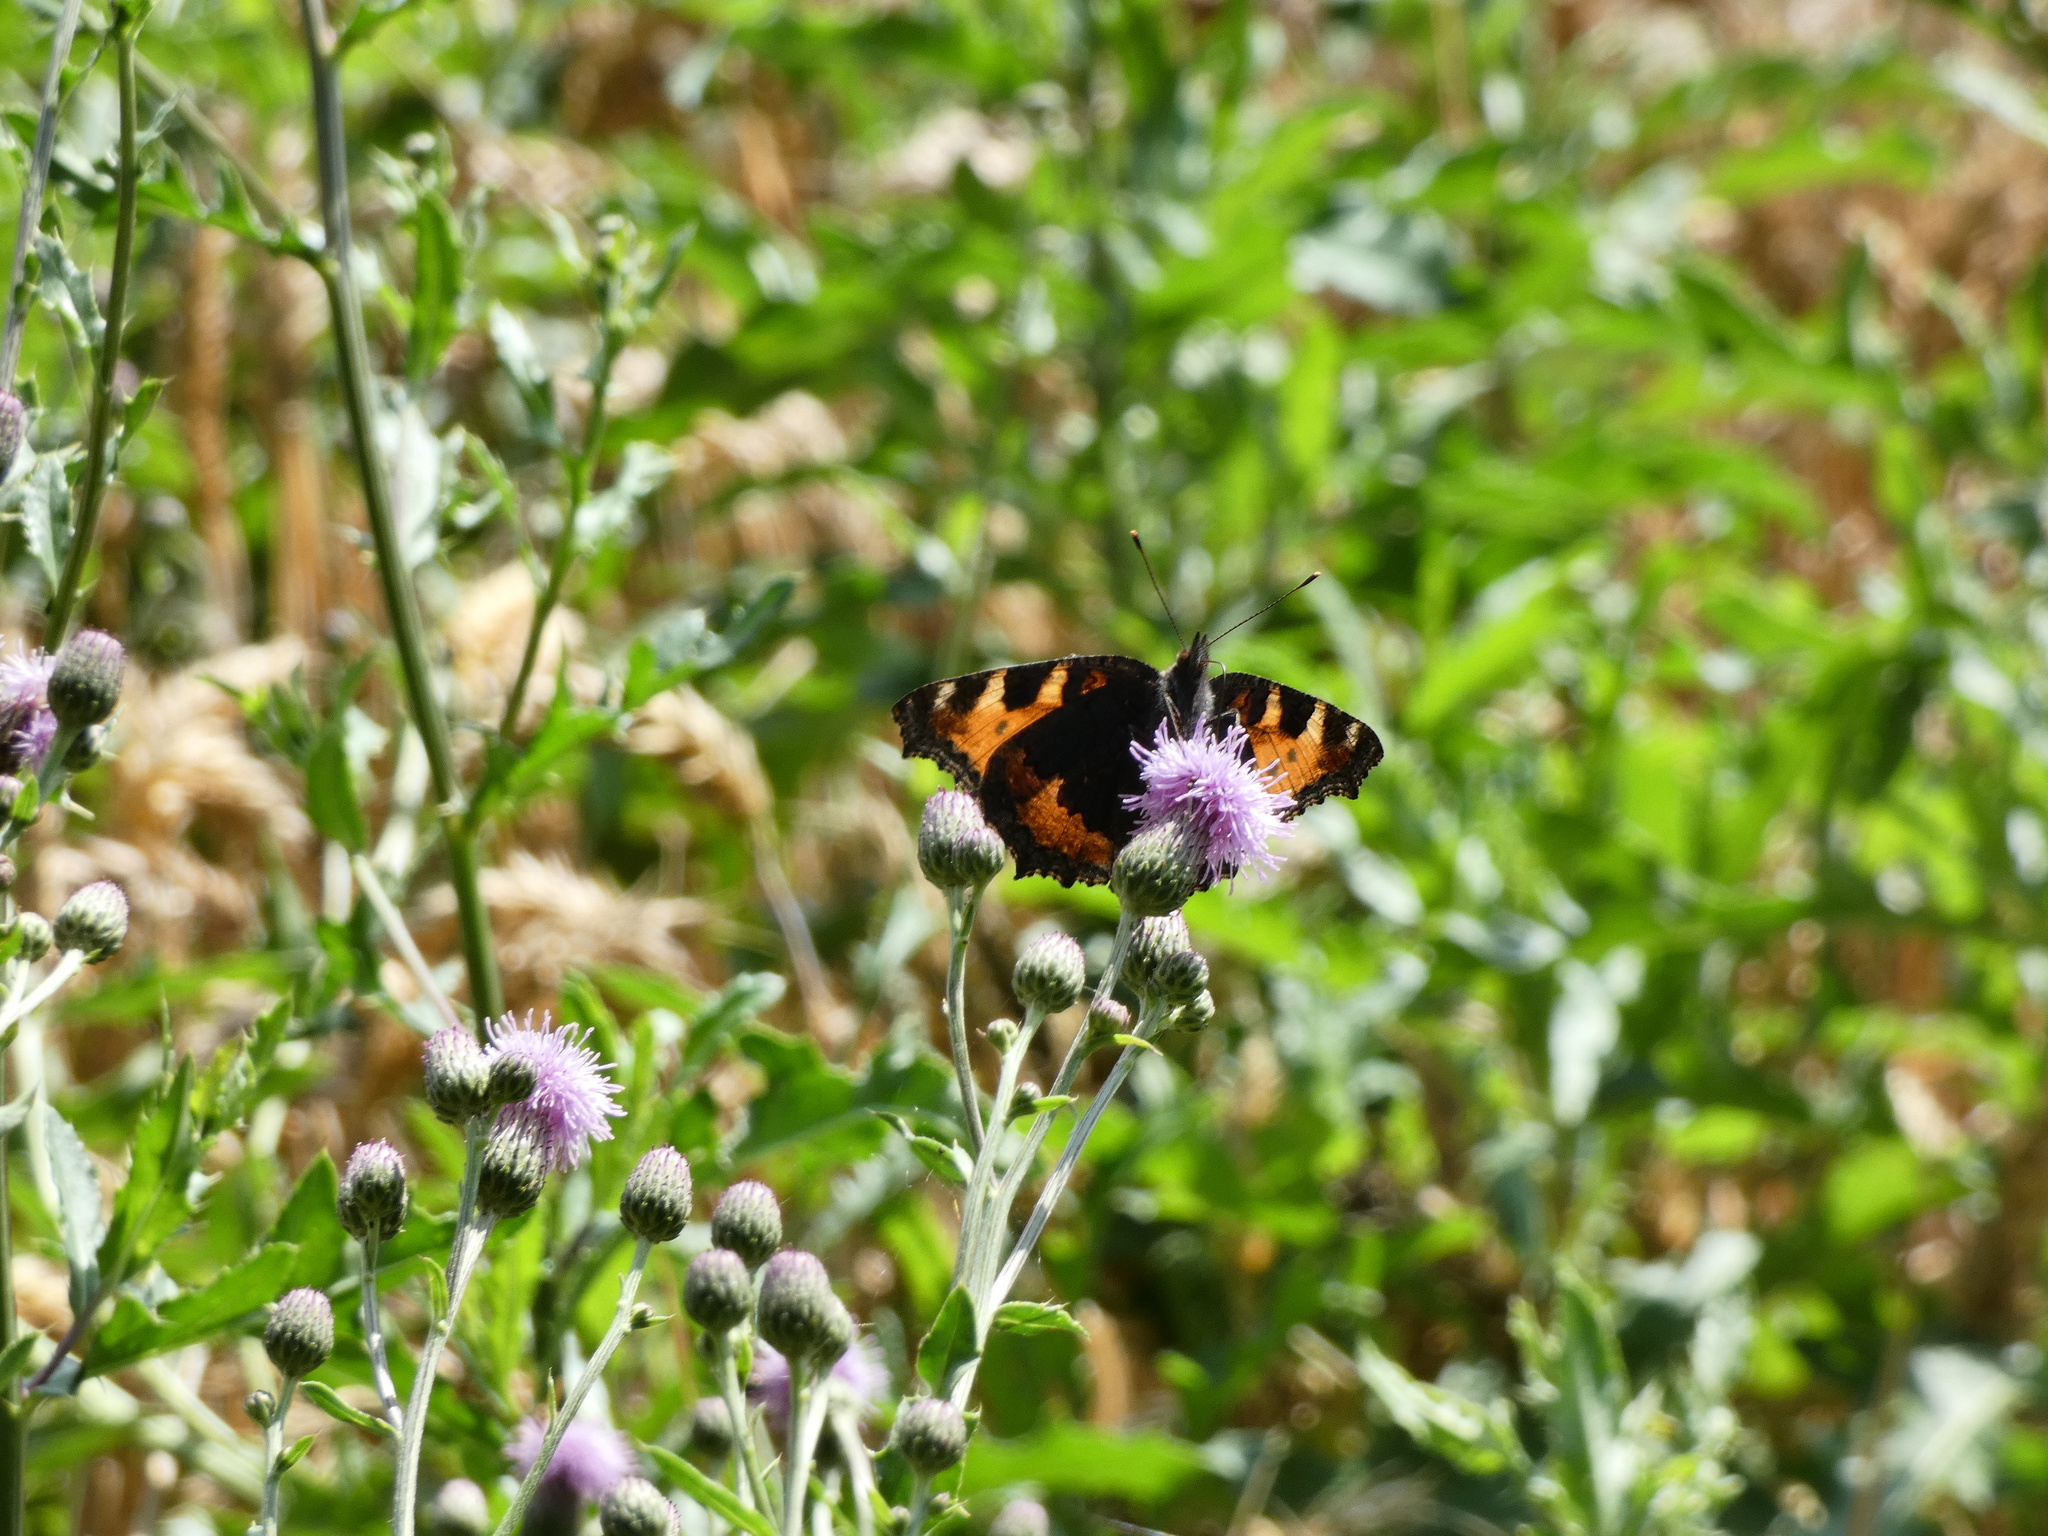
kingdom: Animalia
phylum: Arthropoda
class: Insecta
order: Lepidoptera
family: Nymphalidae
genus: Aglais
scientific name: Aglais urticae
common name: Small tortoiseshell
